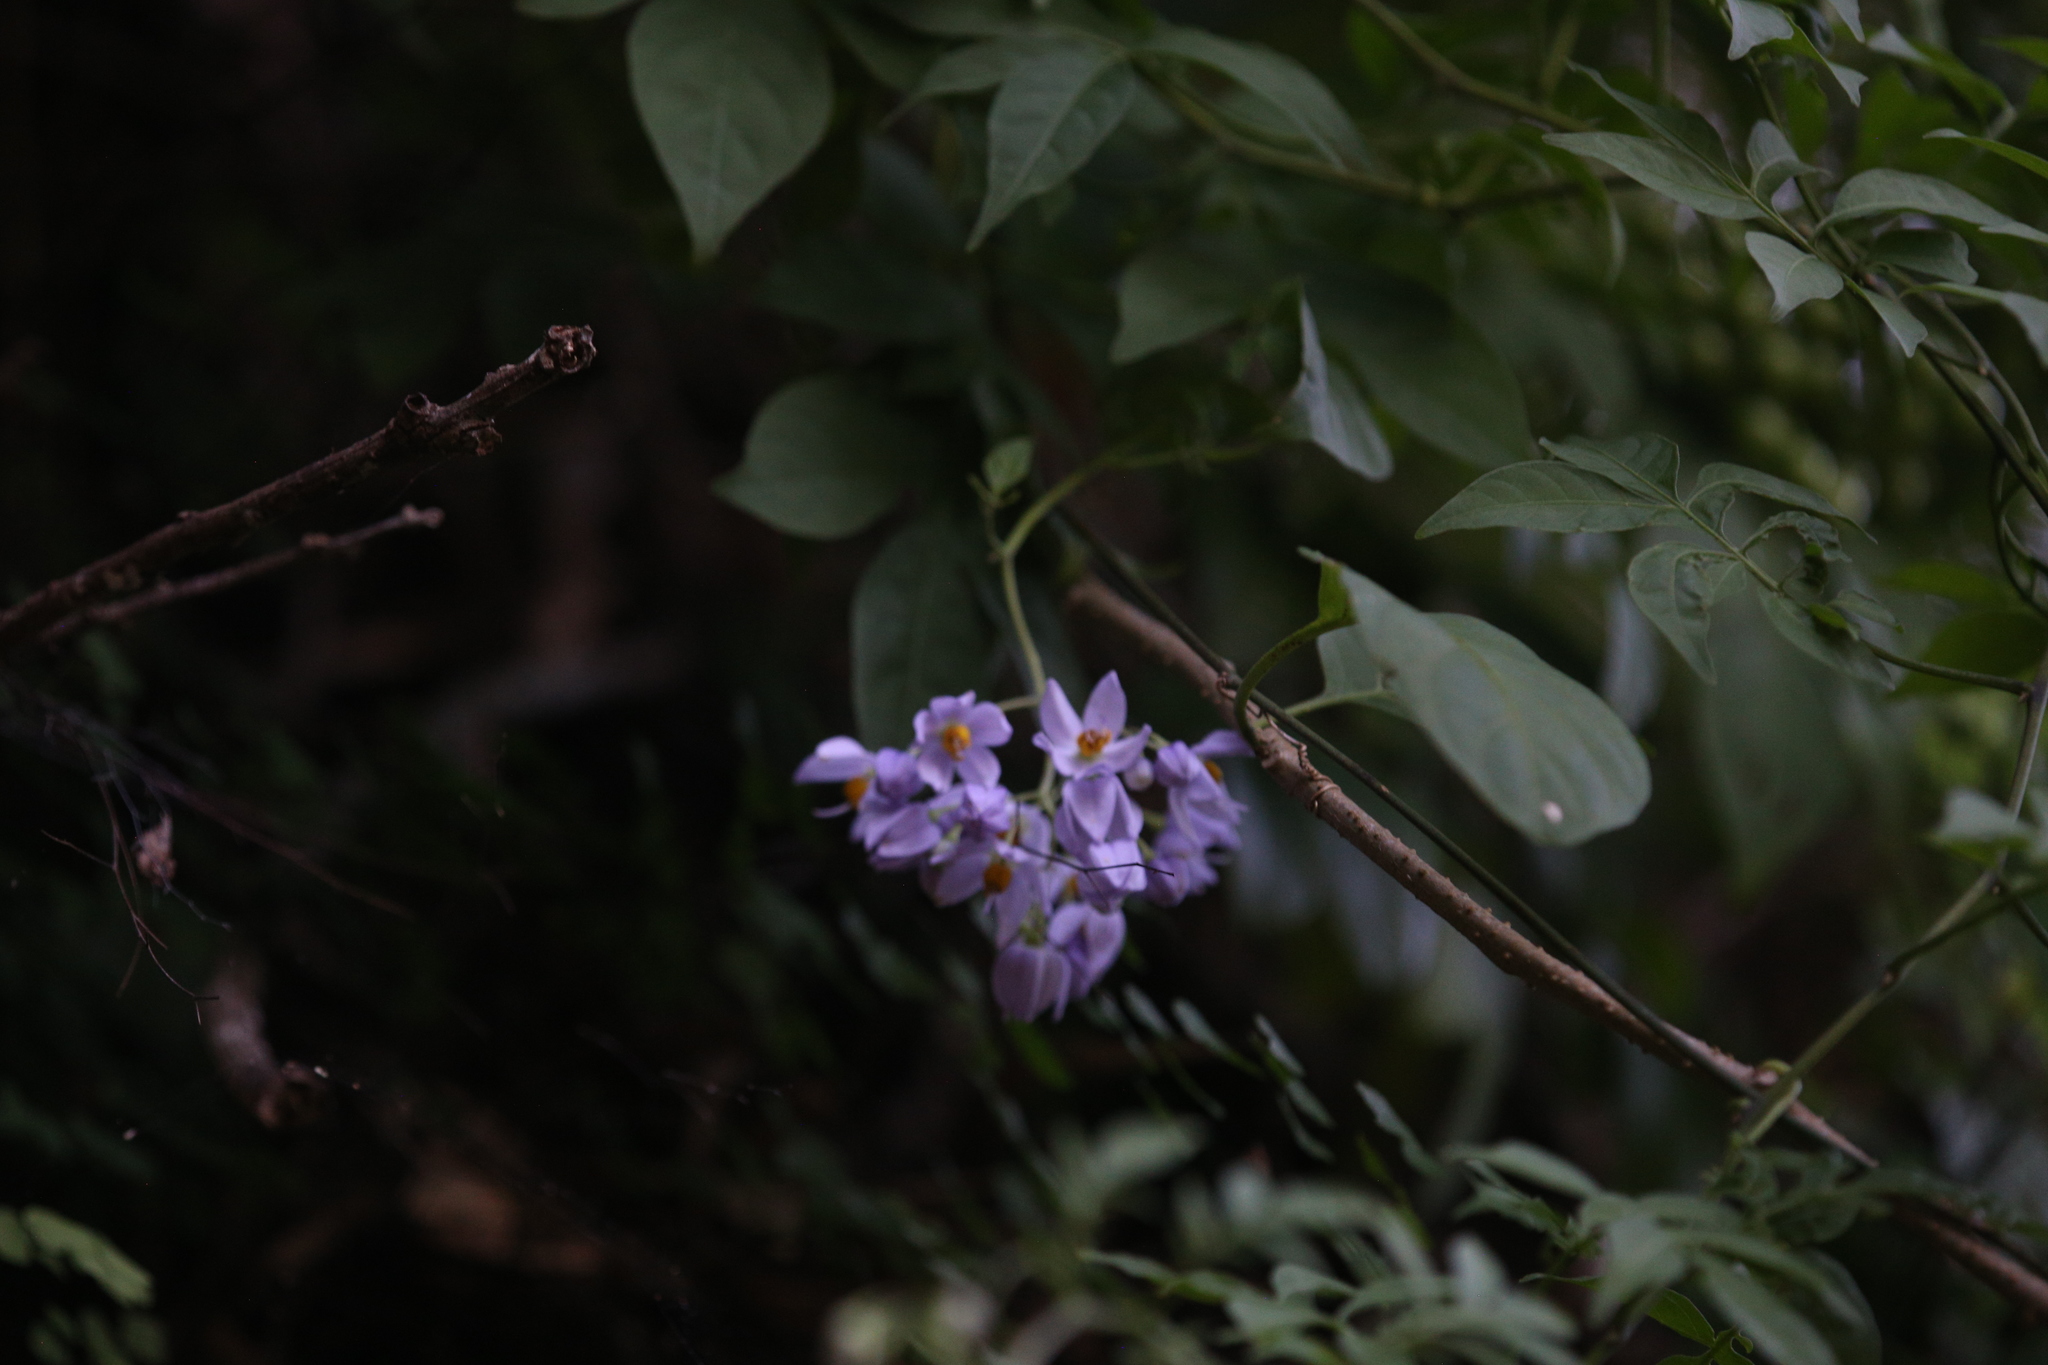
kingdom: Plantae
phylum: Tracheophyta
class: Magnoliopsida
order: Solanales
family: Solanaceae
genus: Solanum
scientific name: Solanum seaforthianum
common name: Brazilian nightshade
